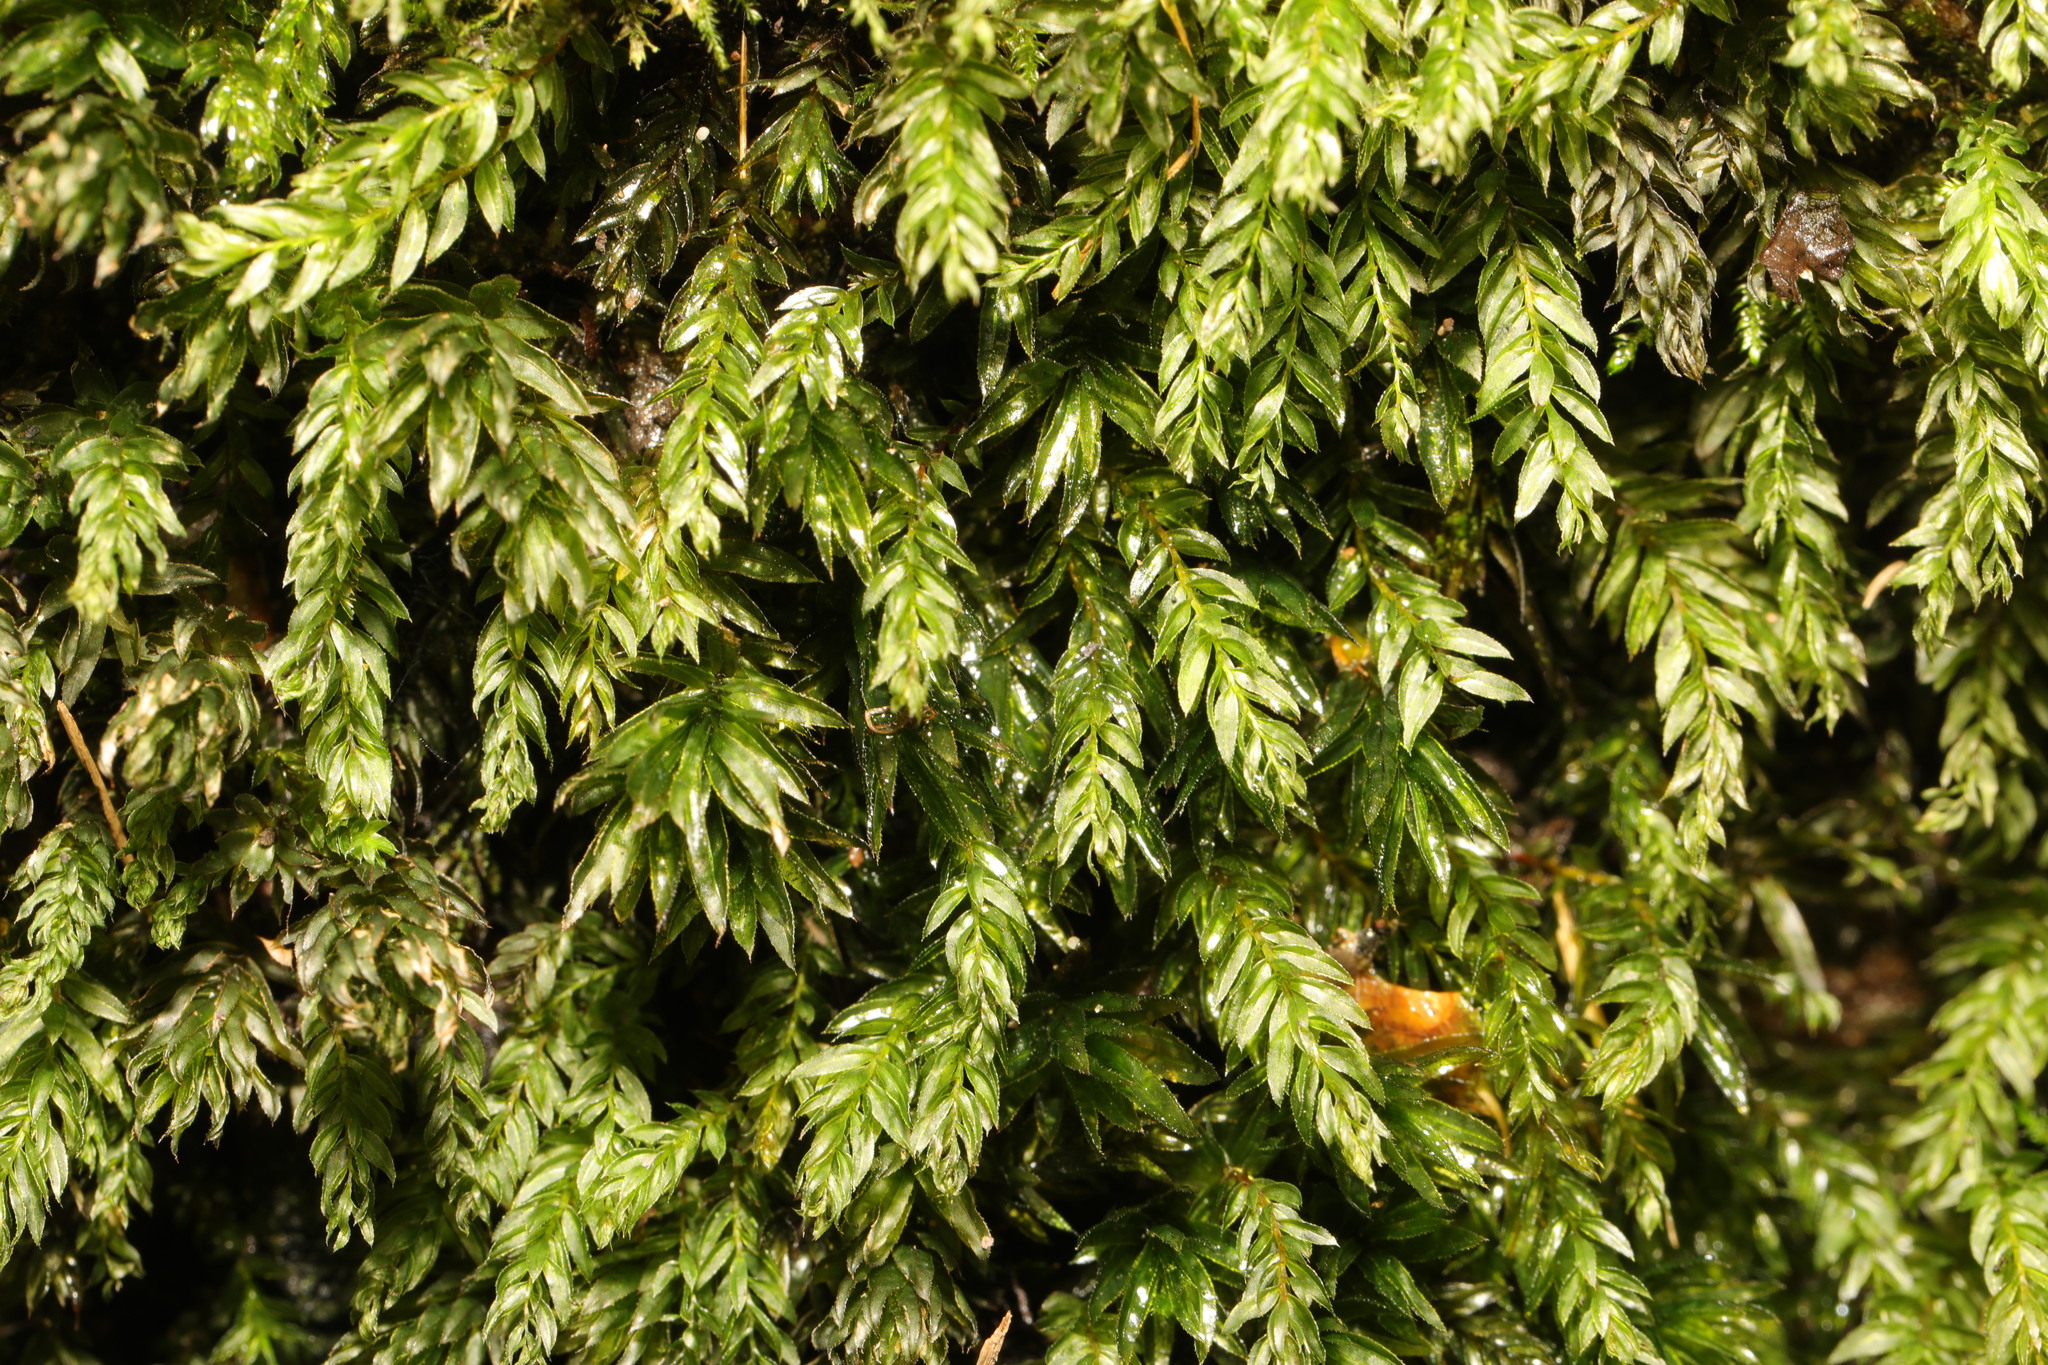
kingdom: Plantae
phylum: Bryophyta
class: Bryopsida
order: Bryales
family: Mniaceae
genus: Mnium
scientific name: Mnium hornum
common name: Swan's-neck leafy moss
